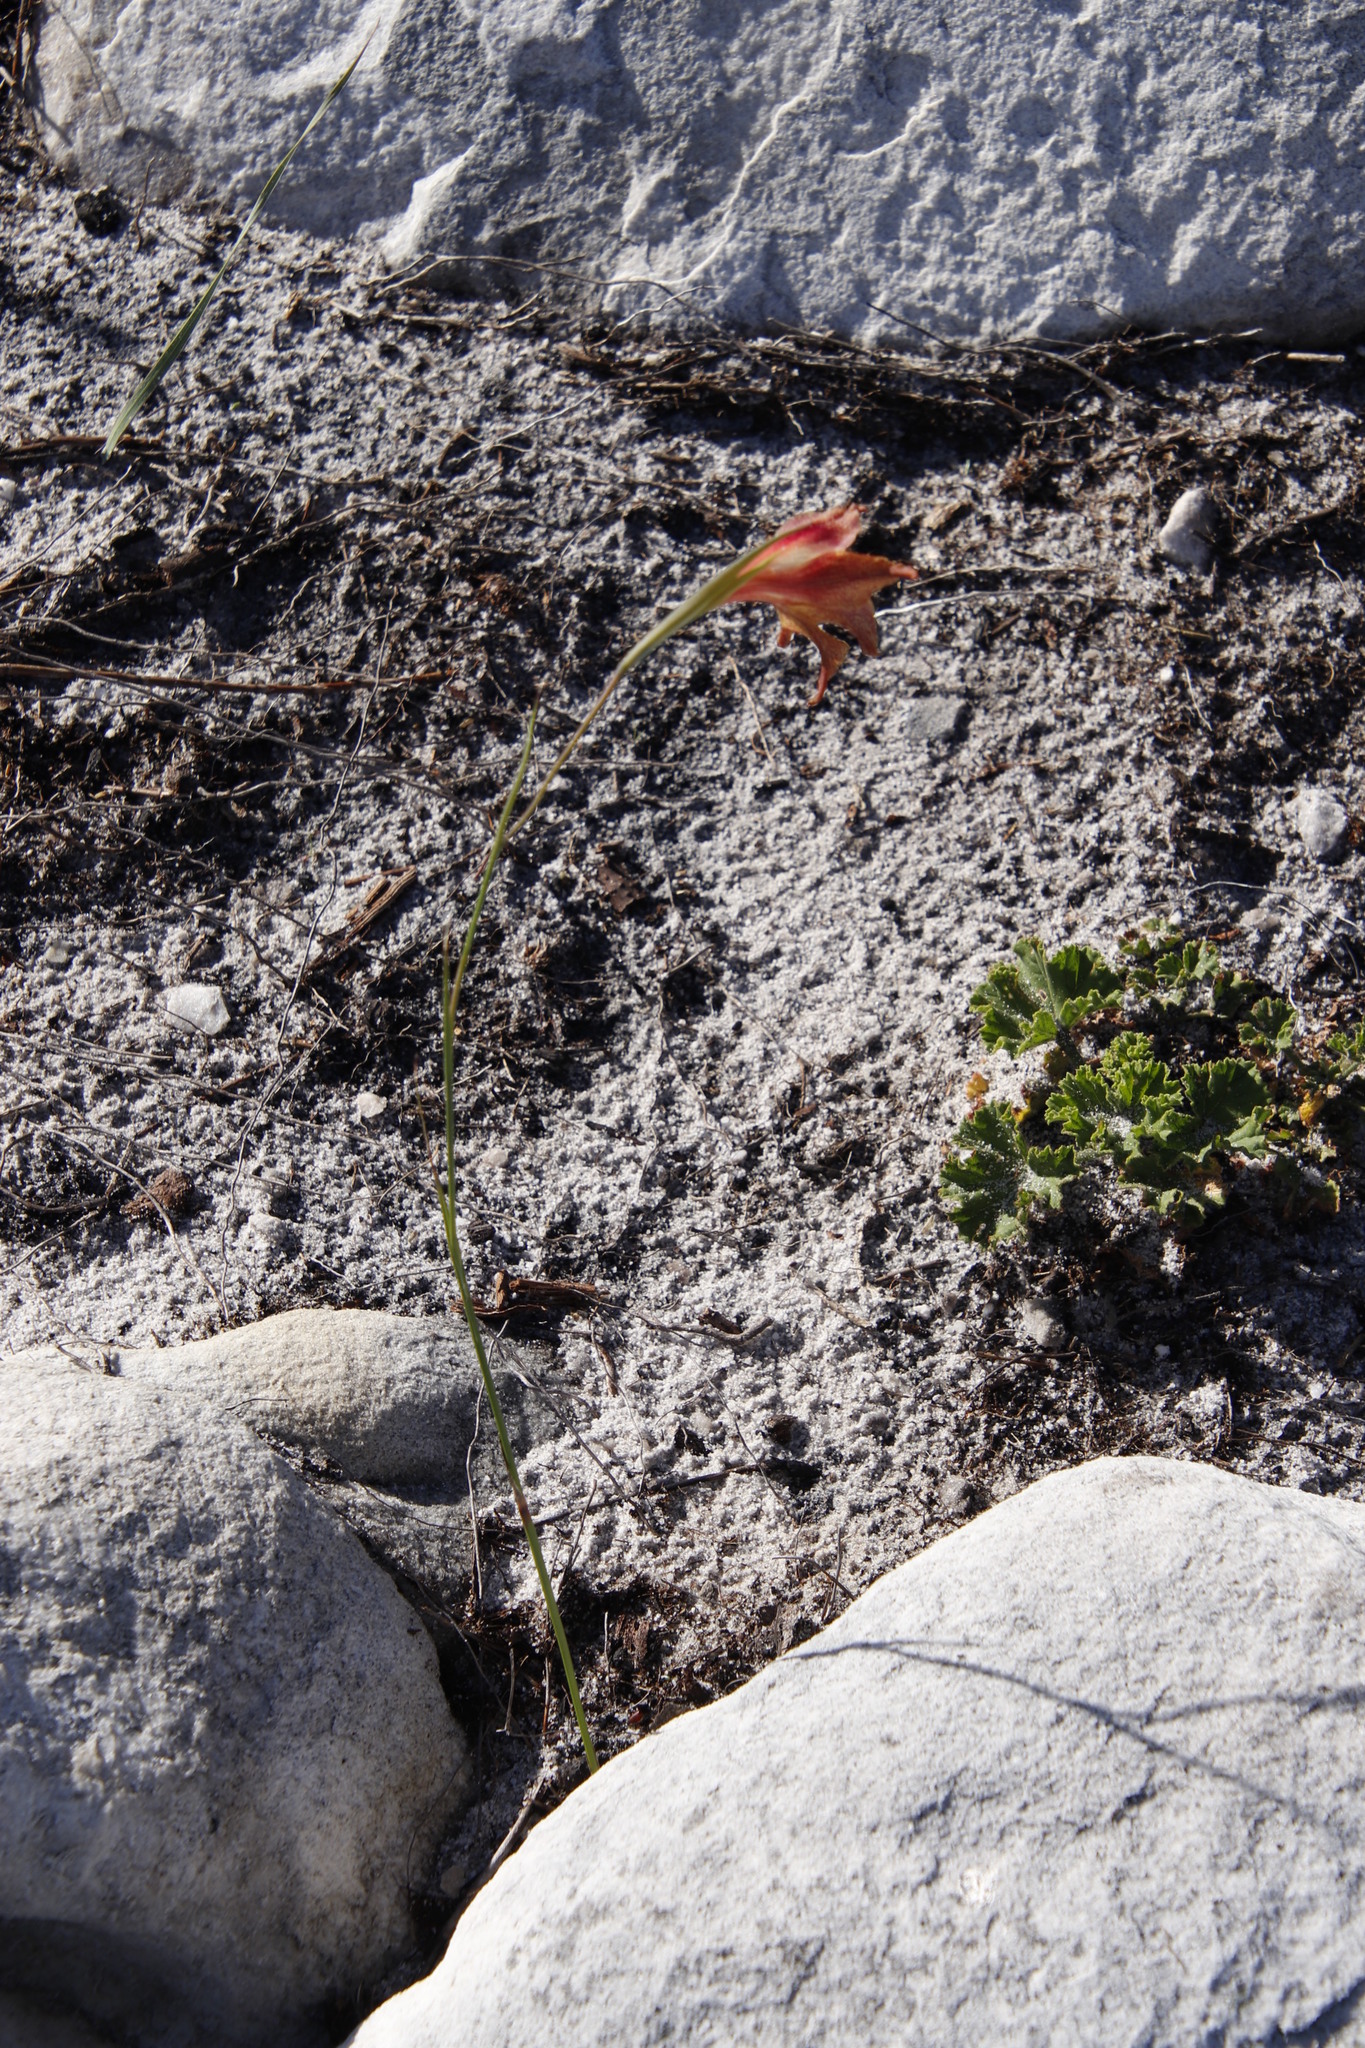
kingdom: Plantae
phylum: Tracheophyta
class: Liliopsida
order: Asparagales
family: Iridaceae
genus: Gladiolus
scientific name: Gladiolus maculatus
